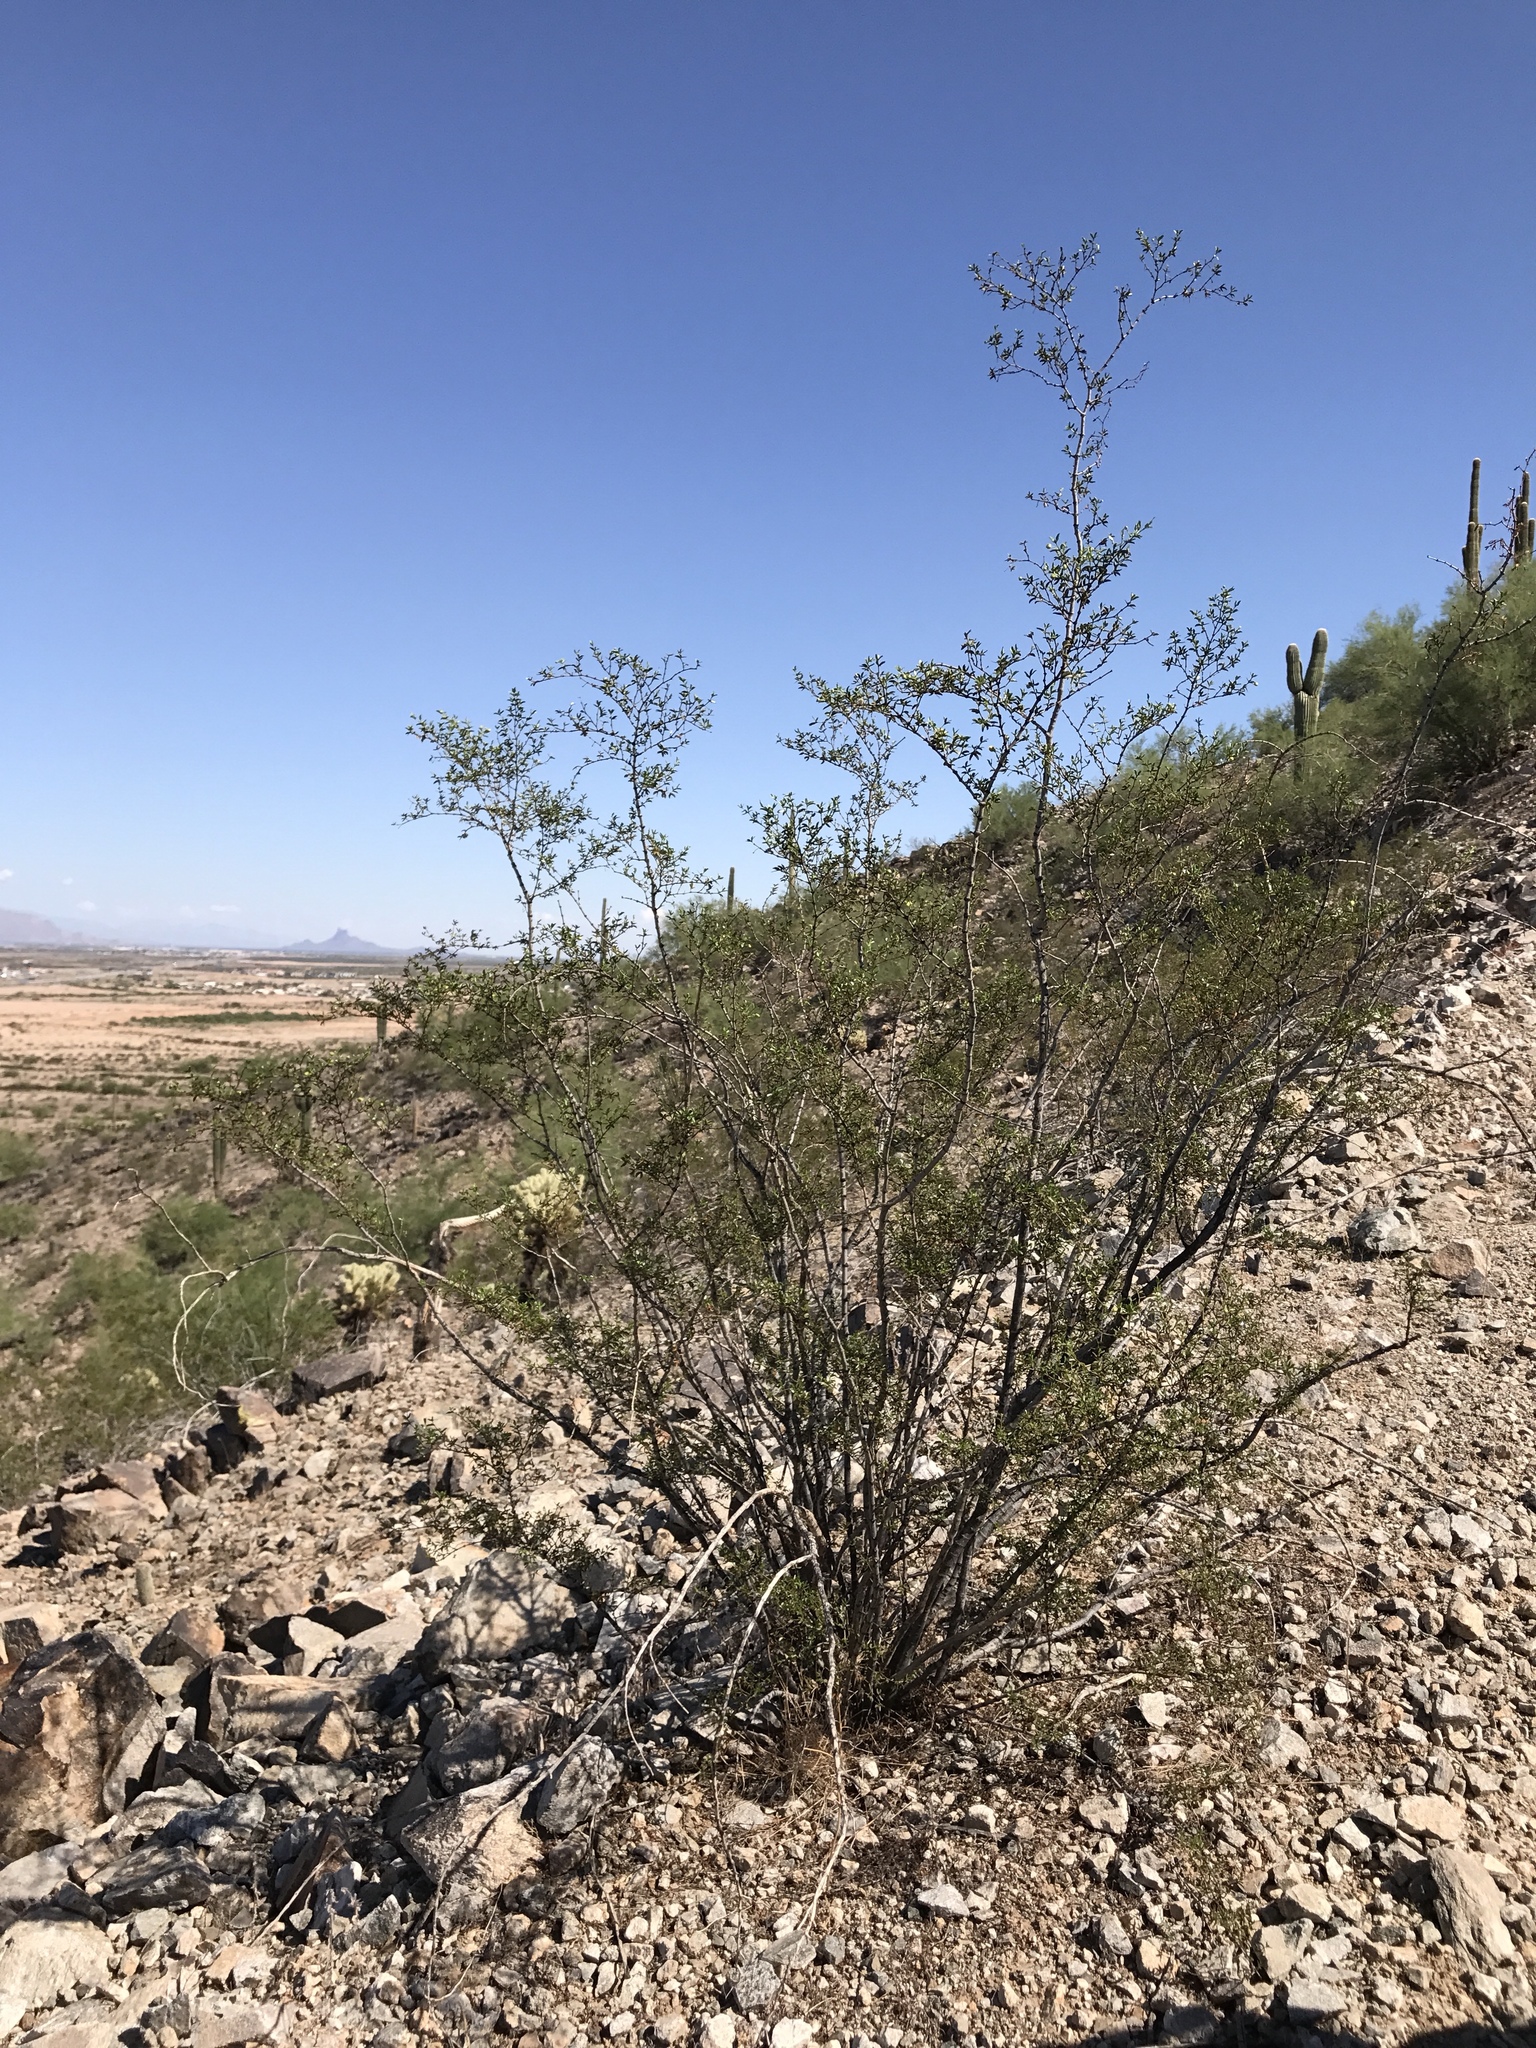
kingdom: Plantae
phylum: Tracheophyta
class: Magnoliopsida
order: Zygophyllales
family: Zygophyllaceae
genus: Larrea
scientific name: Larrea tridentata
